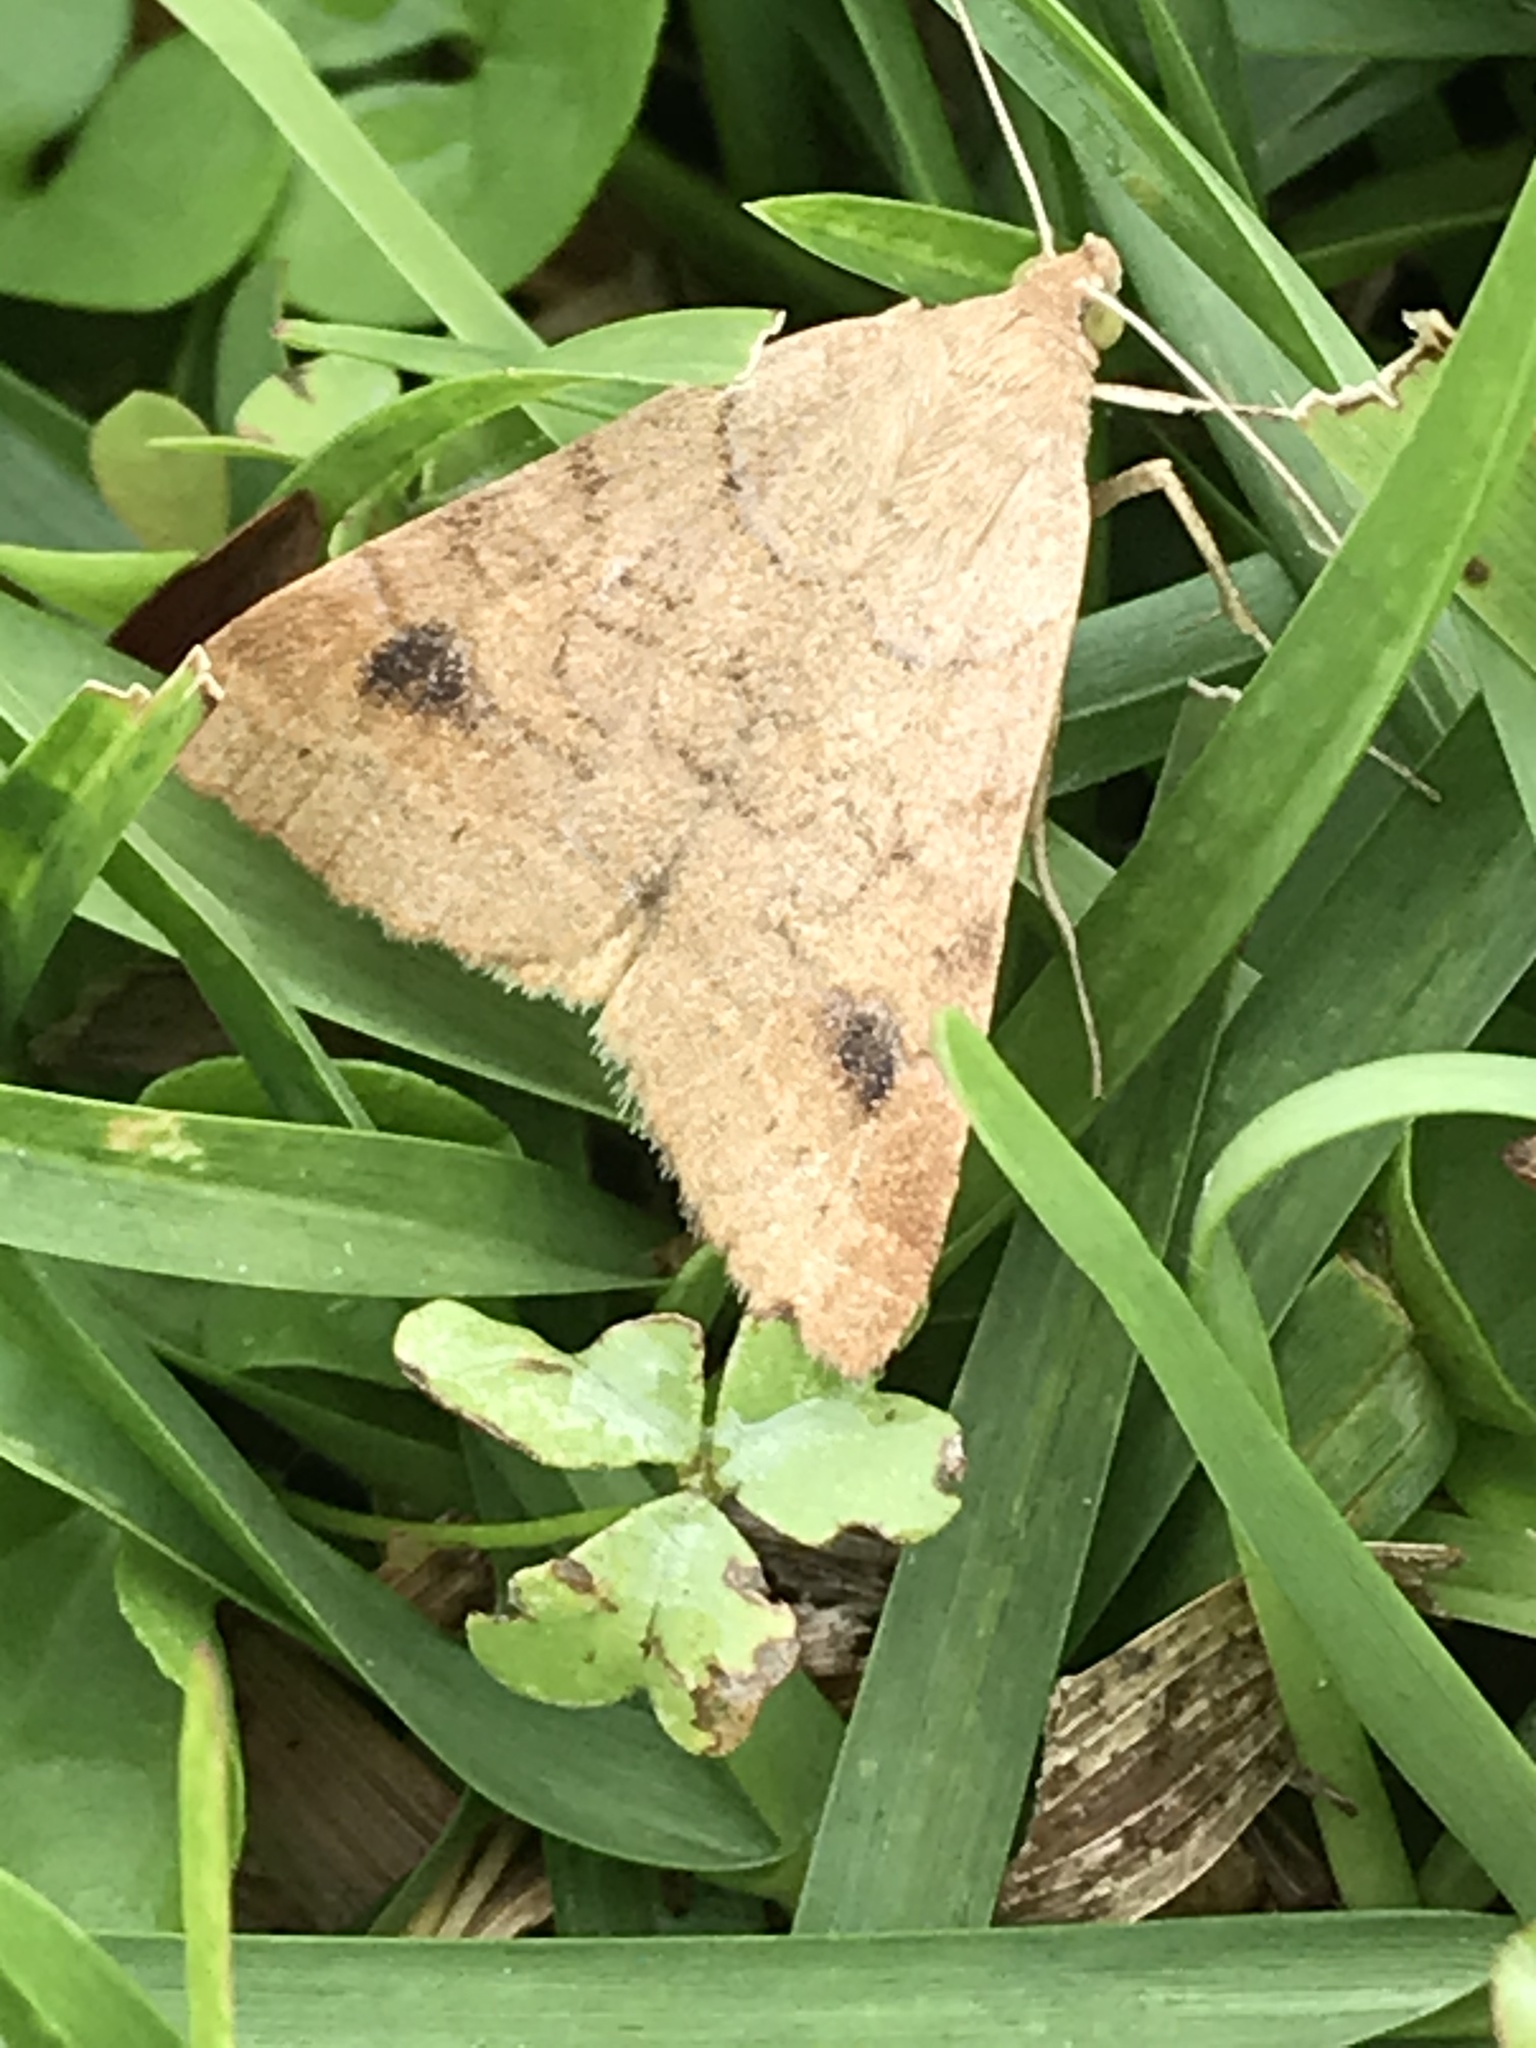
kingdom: Animalia
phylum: Arthropoda
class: Insecta
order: Lepidoptera
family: Erebidae
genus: Caenurgia
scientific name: Caenurgia chloropha
